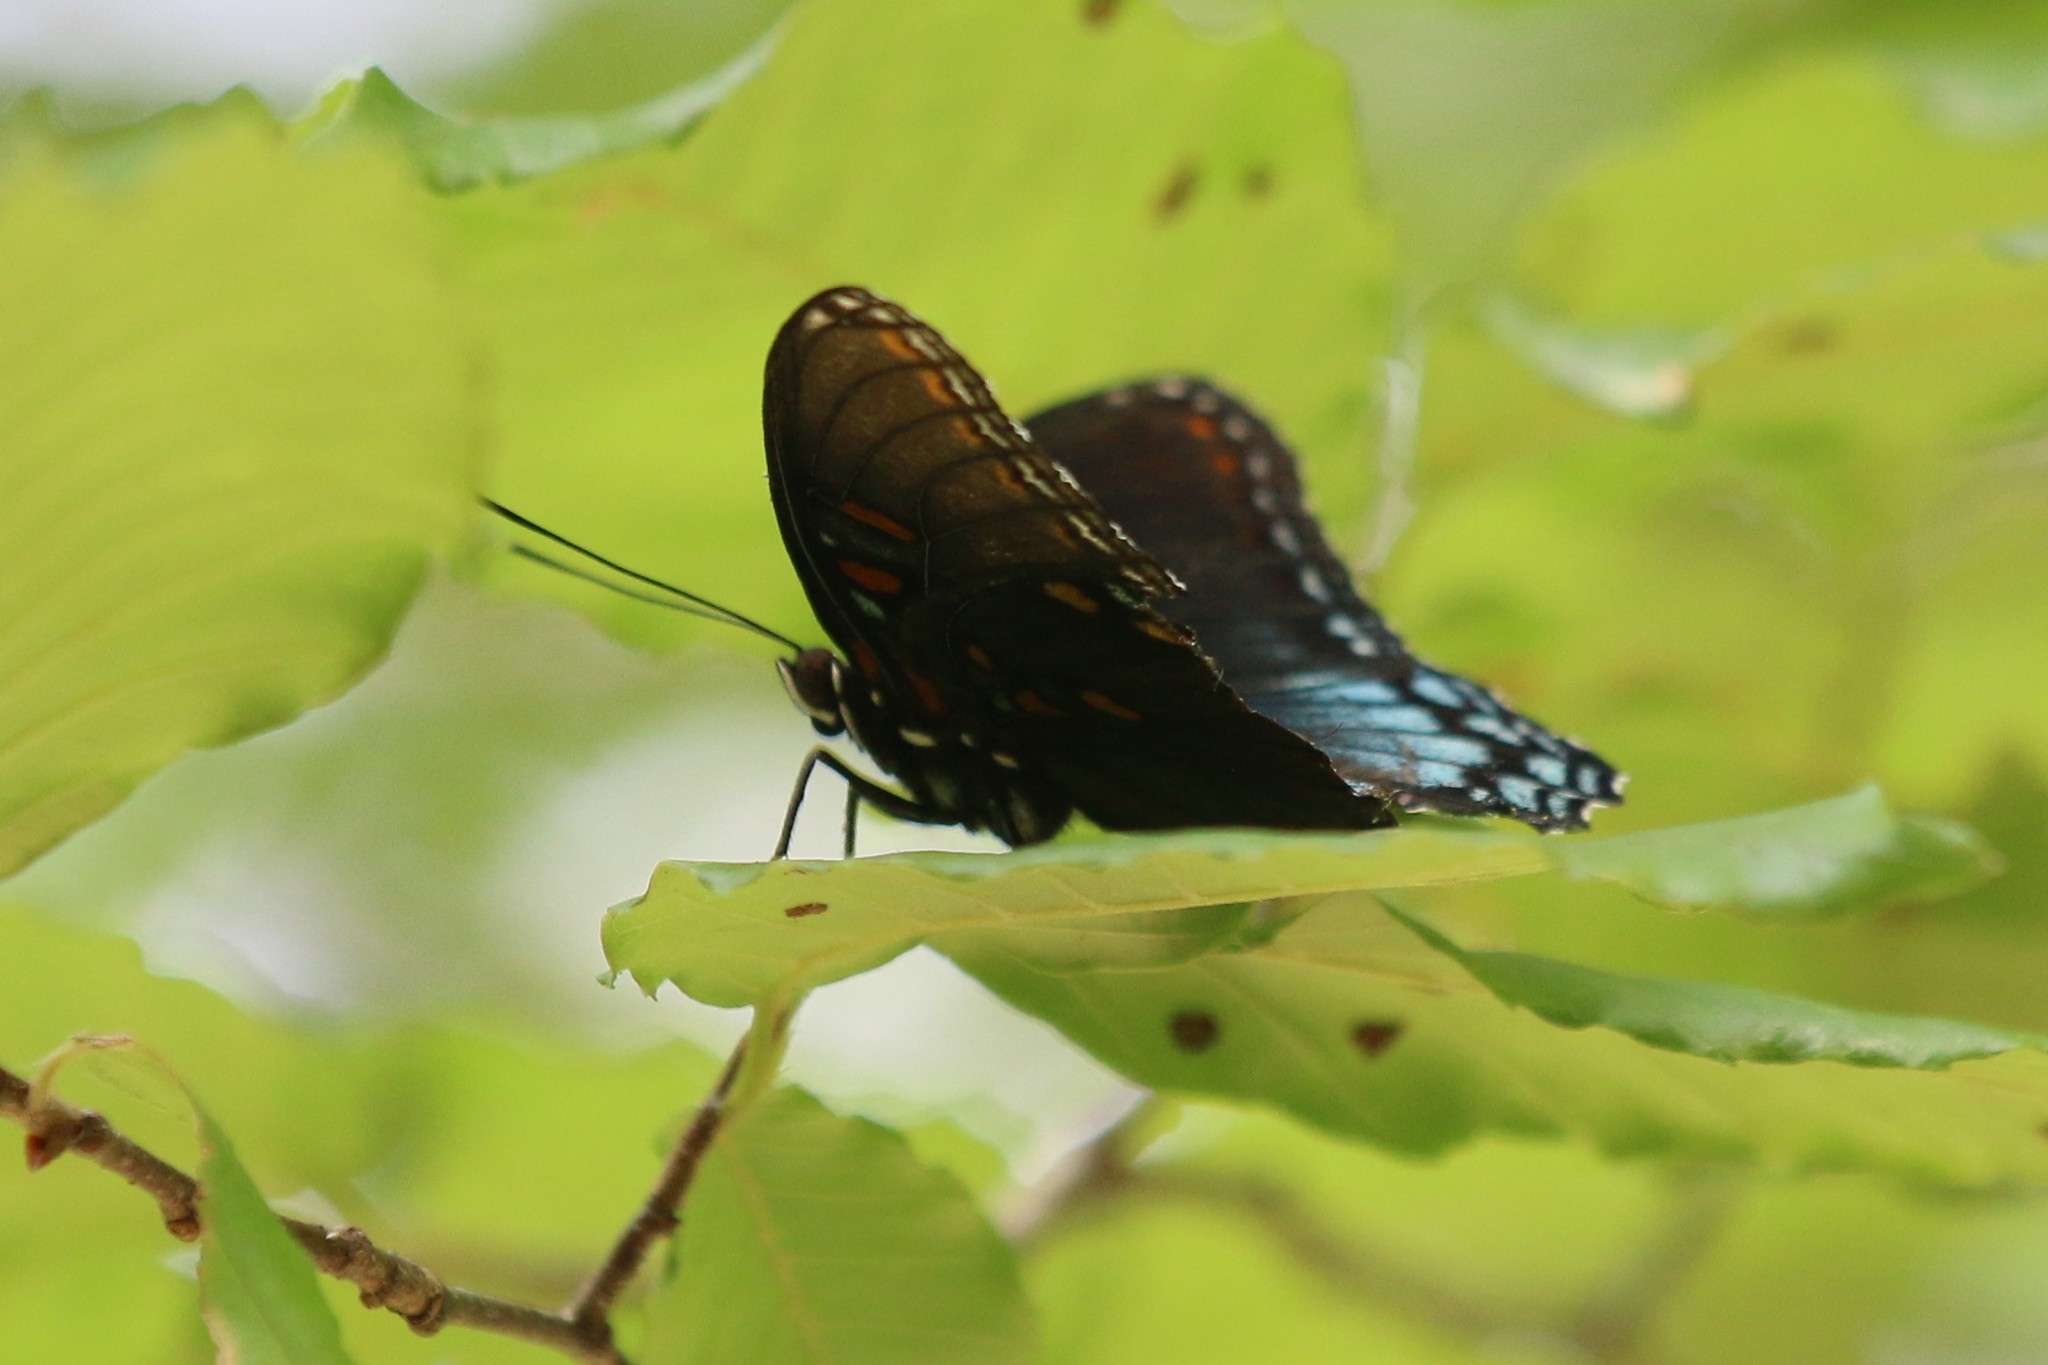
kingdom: Animalia
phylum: Arthropoda
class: Insecta
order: Lepidoptera
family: Nymphalidae
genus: Limenitis
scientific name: Limenitis astyanax
